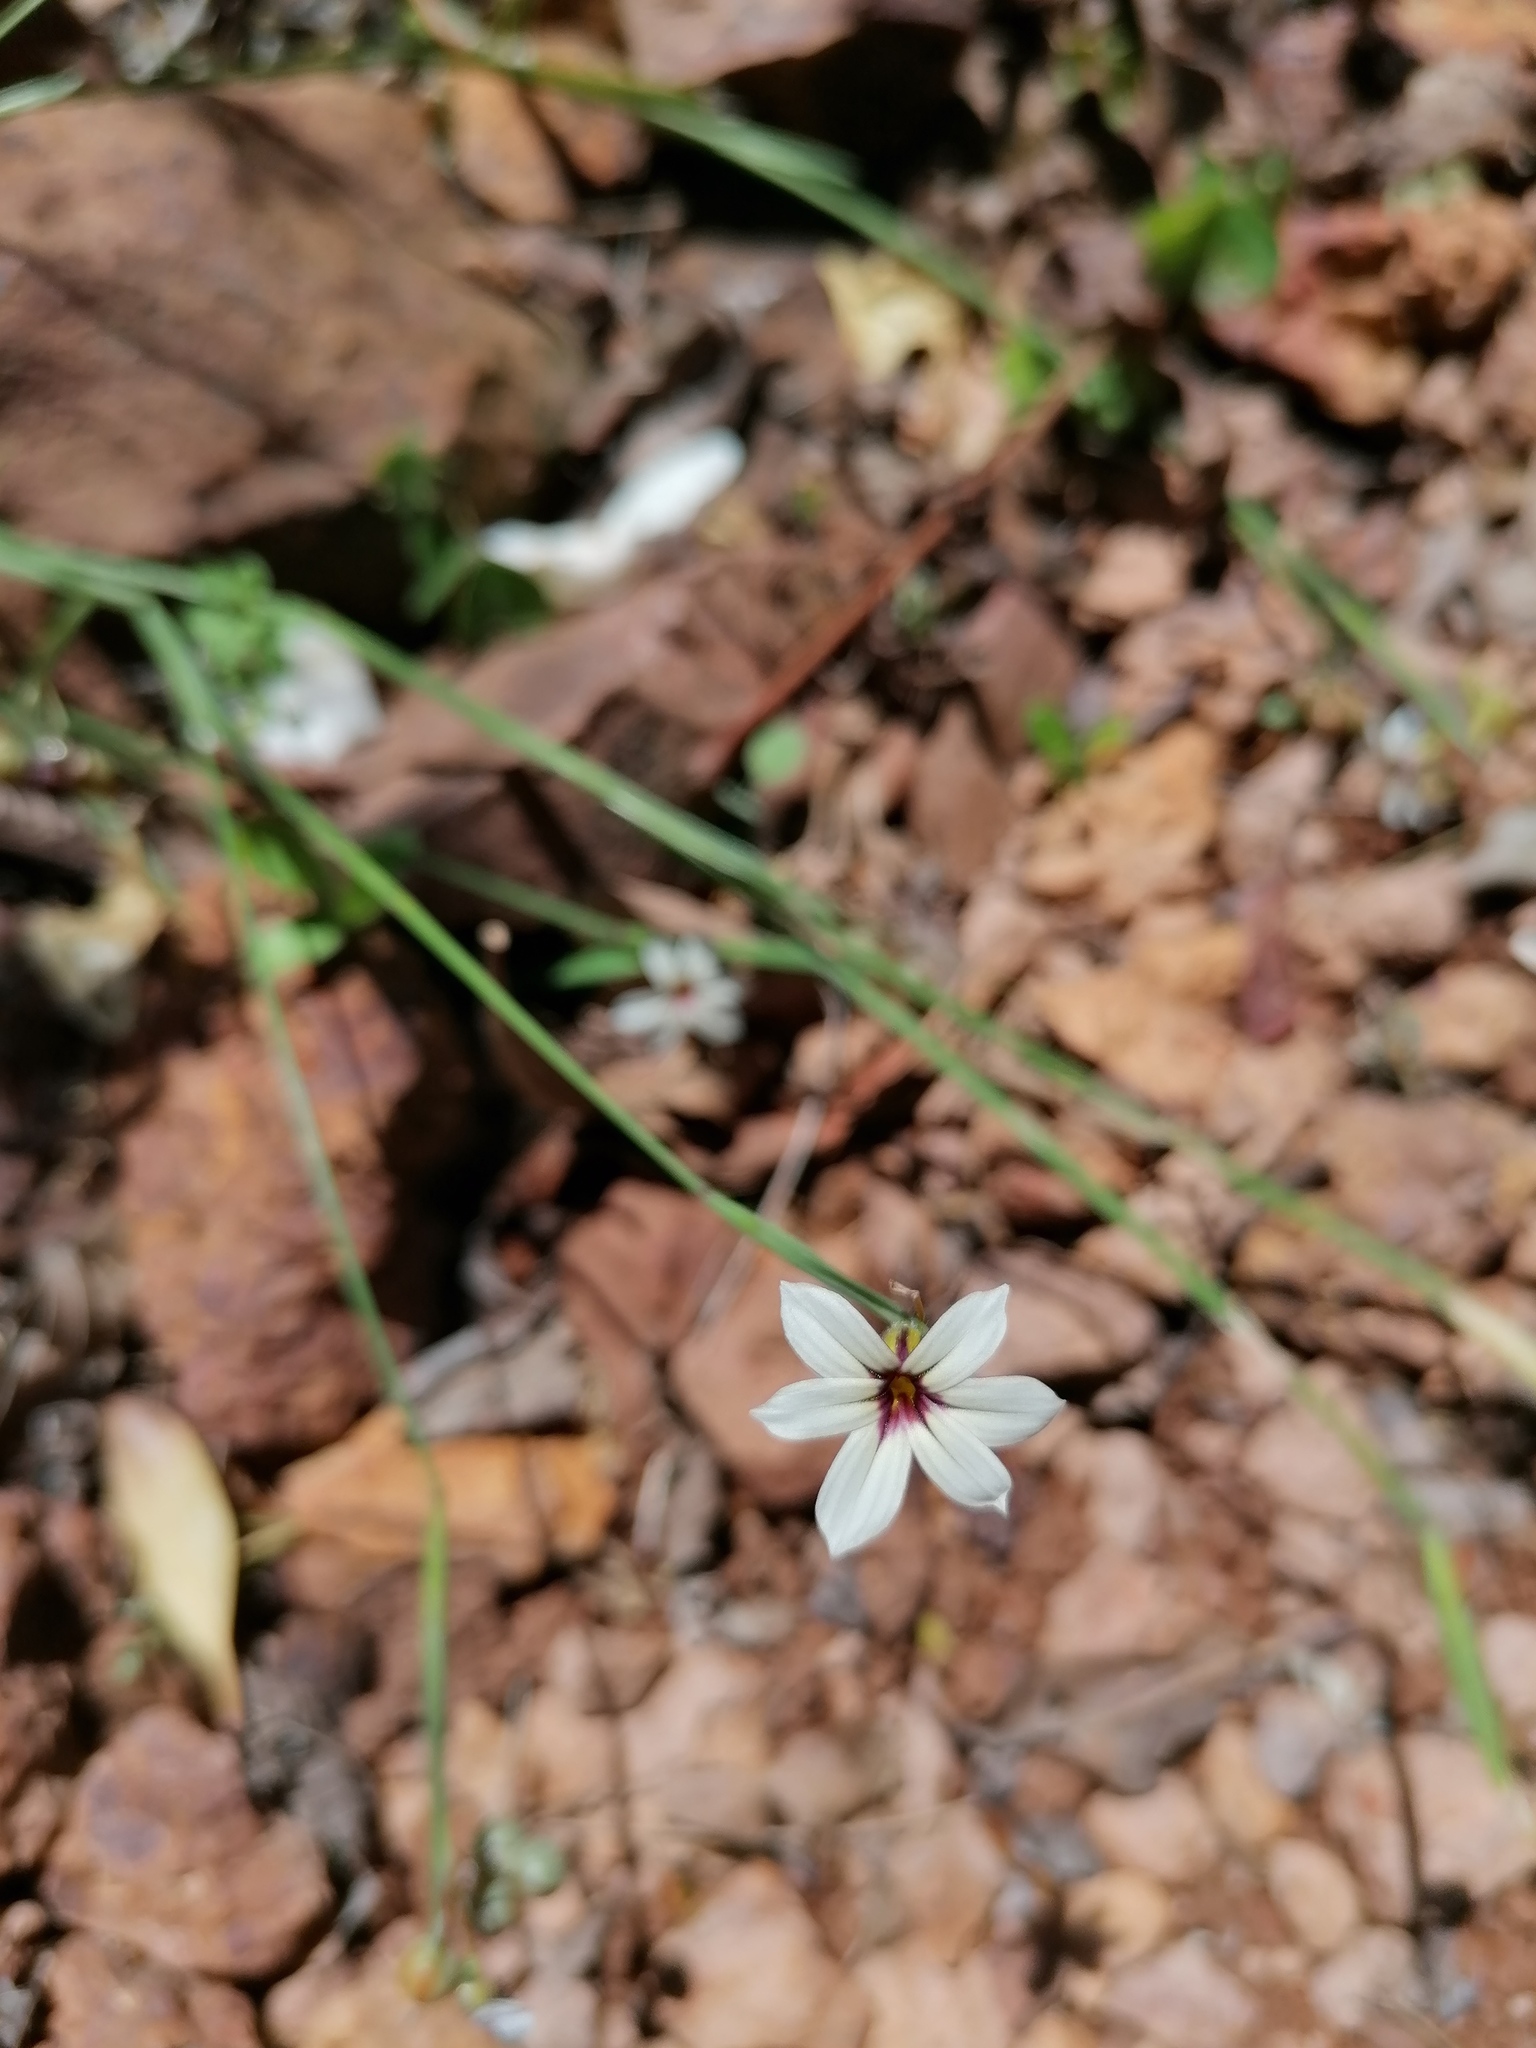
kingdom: Plantae
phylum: Tracheophyta
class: Liliopsida
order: Asparagales
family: Iridaceae
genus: Sisyrinchium
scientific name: Sisyrinchium micranthum
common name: Bermuda pigroot
